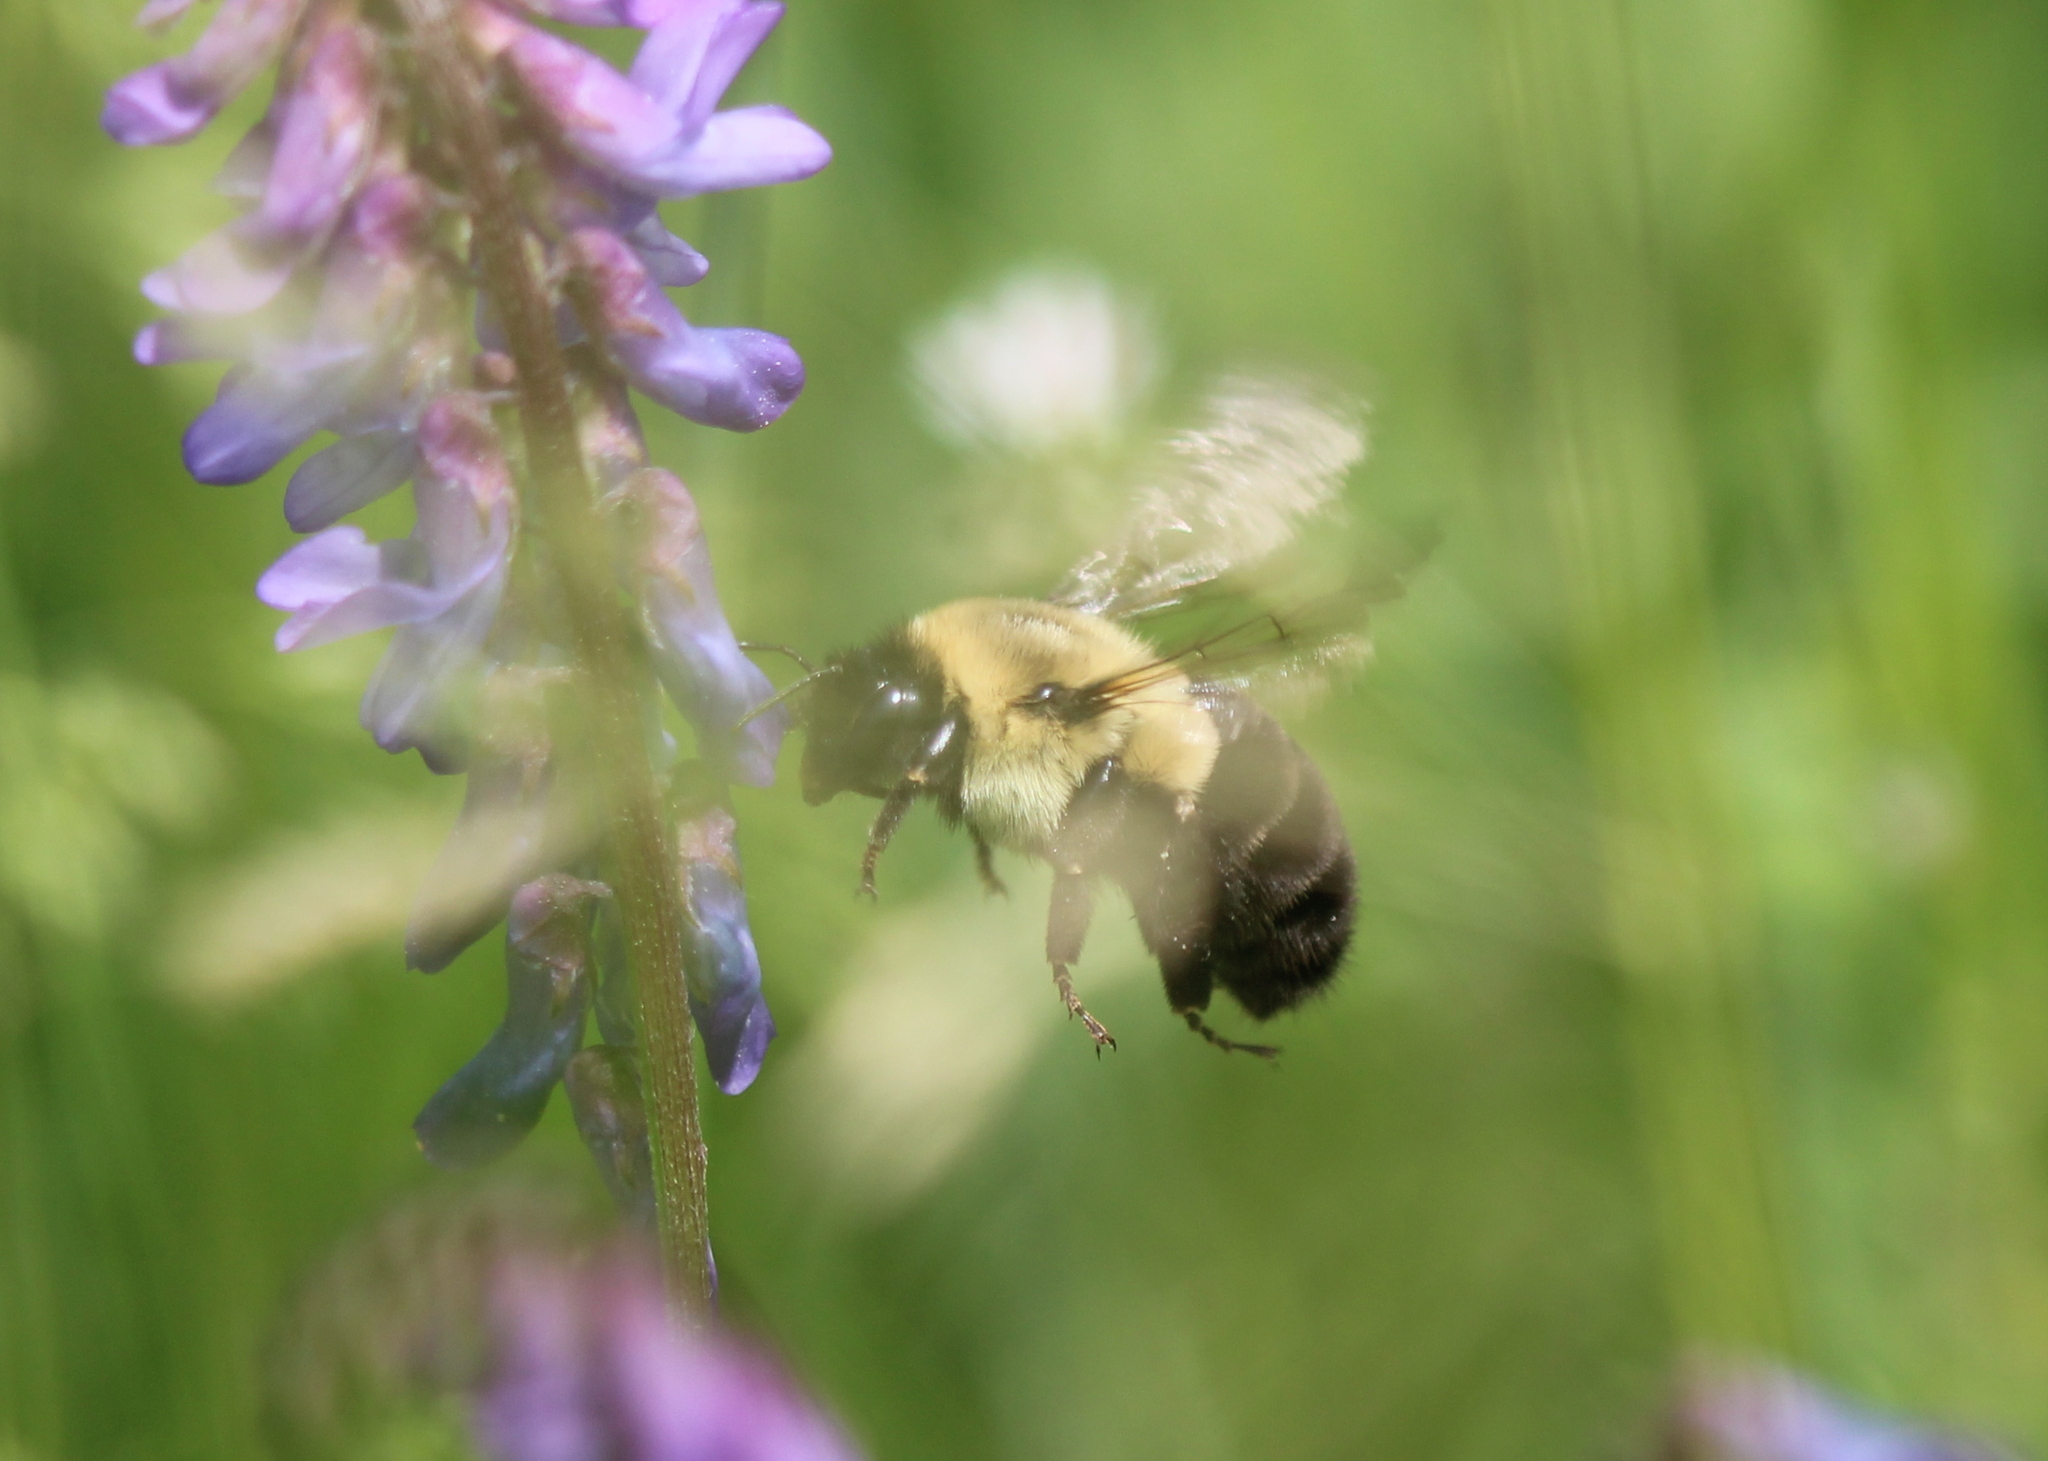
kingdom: Animalia
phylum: Arthropoda
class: Insecta
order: Hymenoptera
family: Apidae
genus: Bombus
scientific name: Bombus impatiens
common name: Common eastern bumble bee
